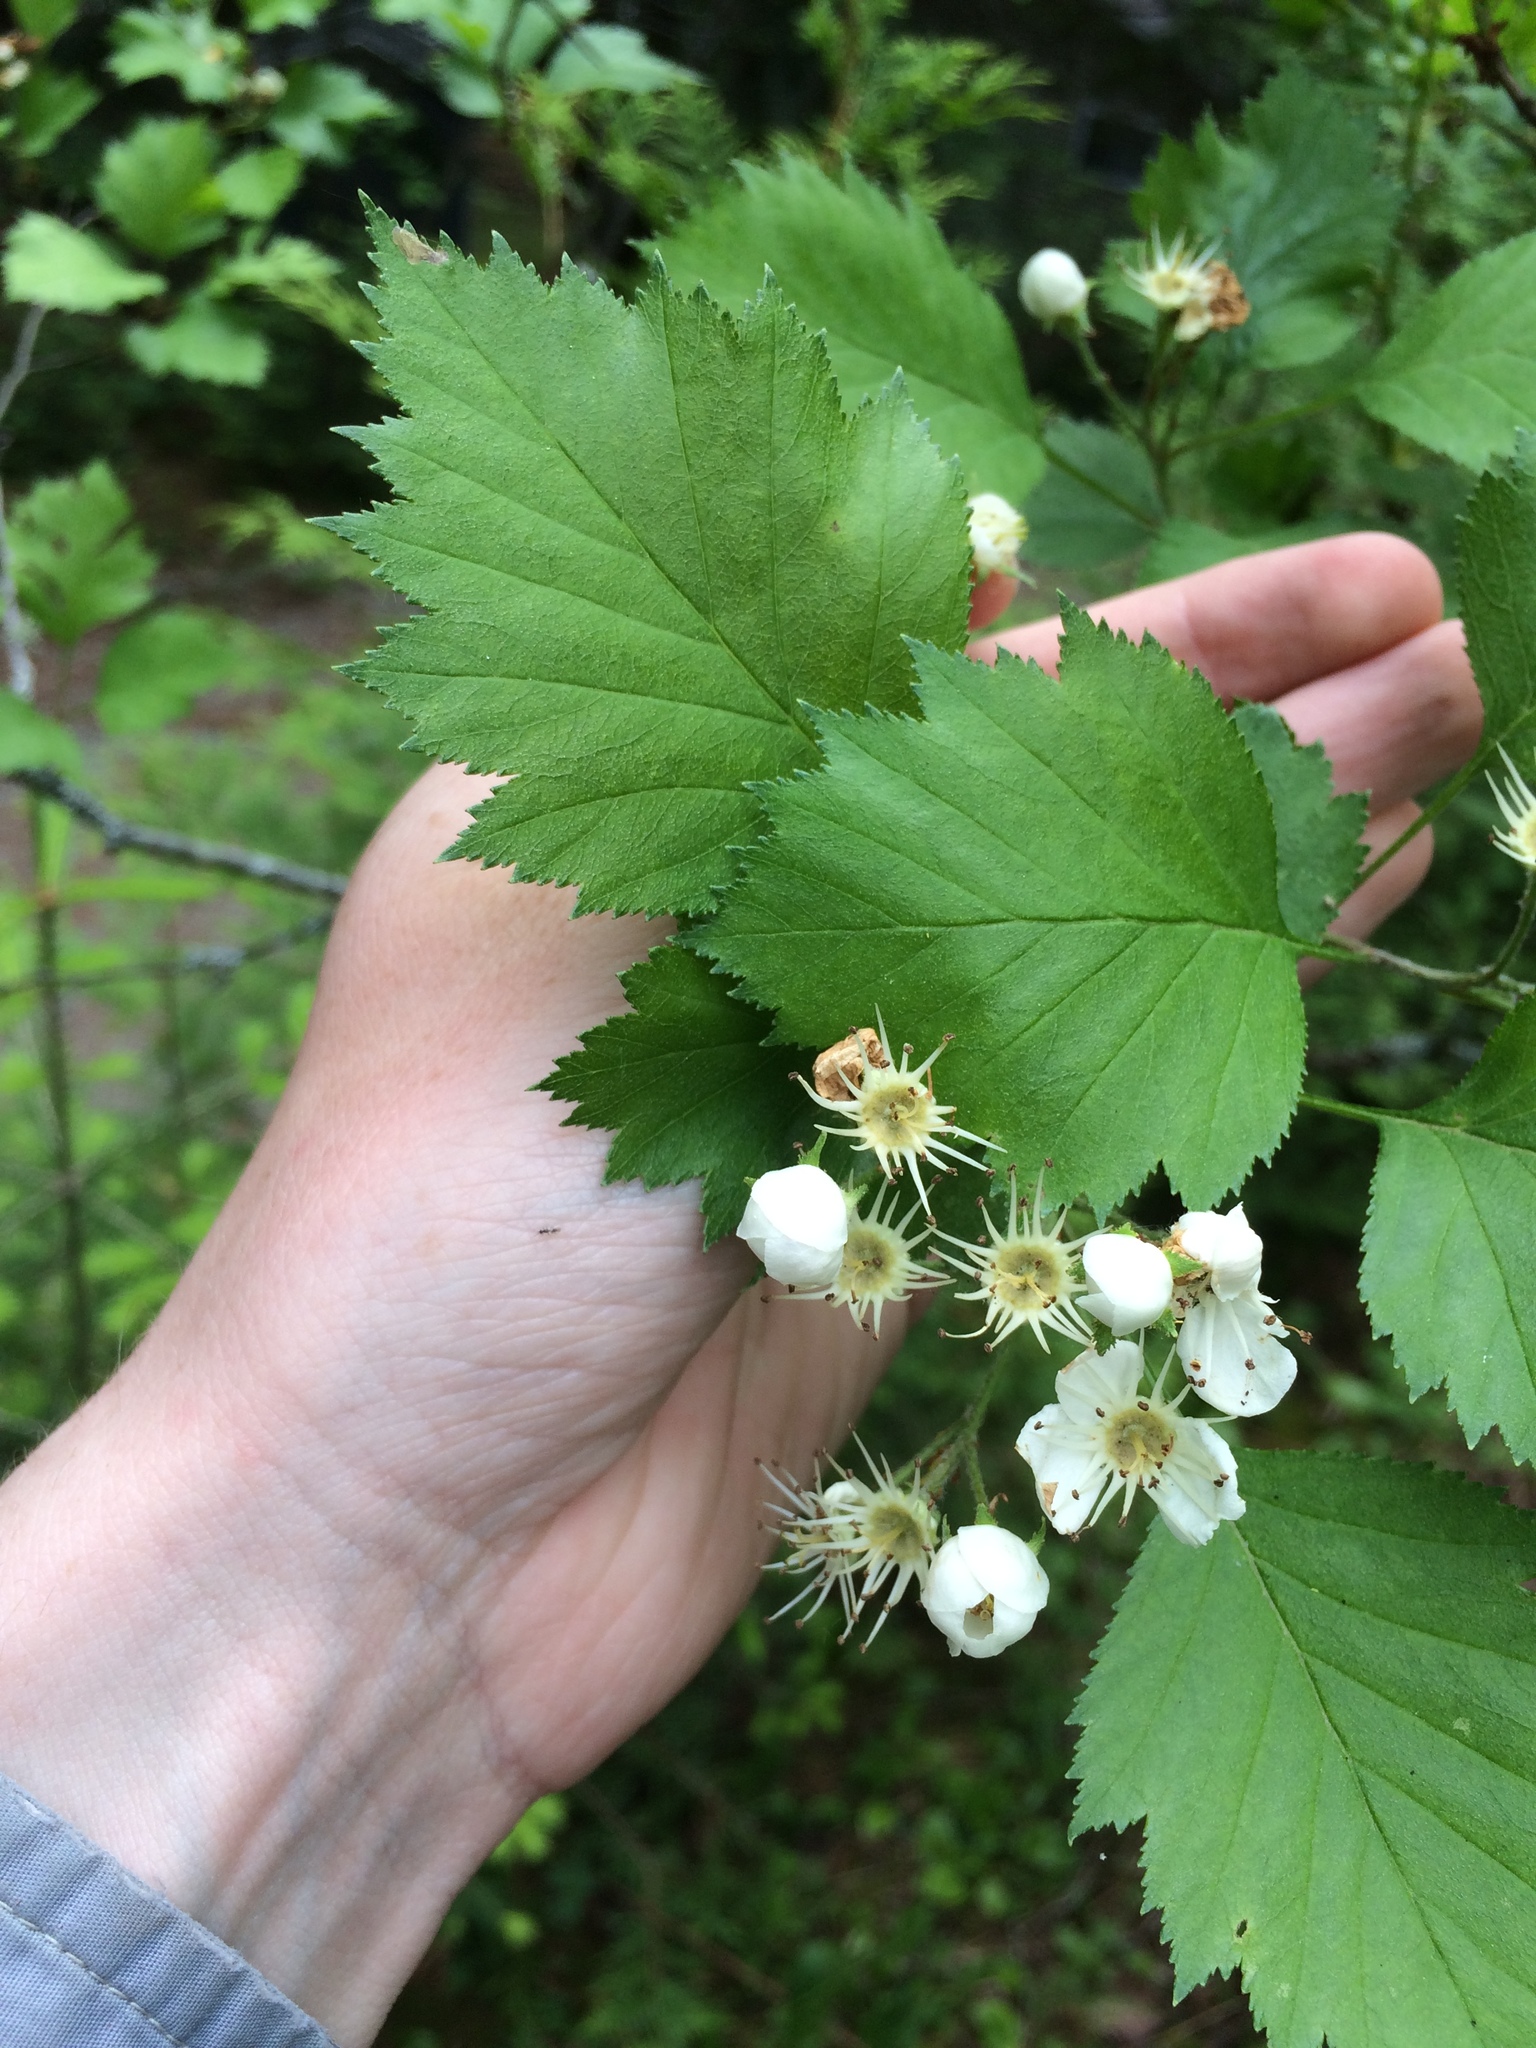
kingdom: Plantae
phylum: Tracheophyta
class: Magnoliopsida
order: Rosales
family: Rosaceae
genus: Crataegus
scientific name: Crataegus irrasa
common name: Unshorn hawthorn
